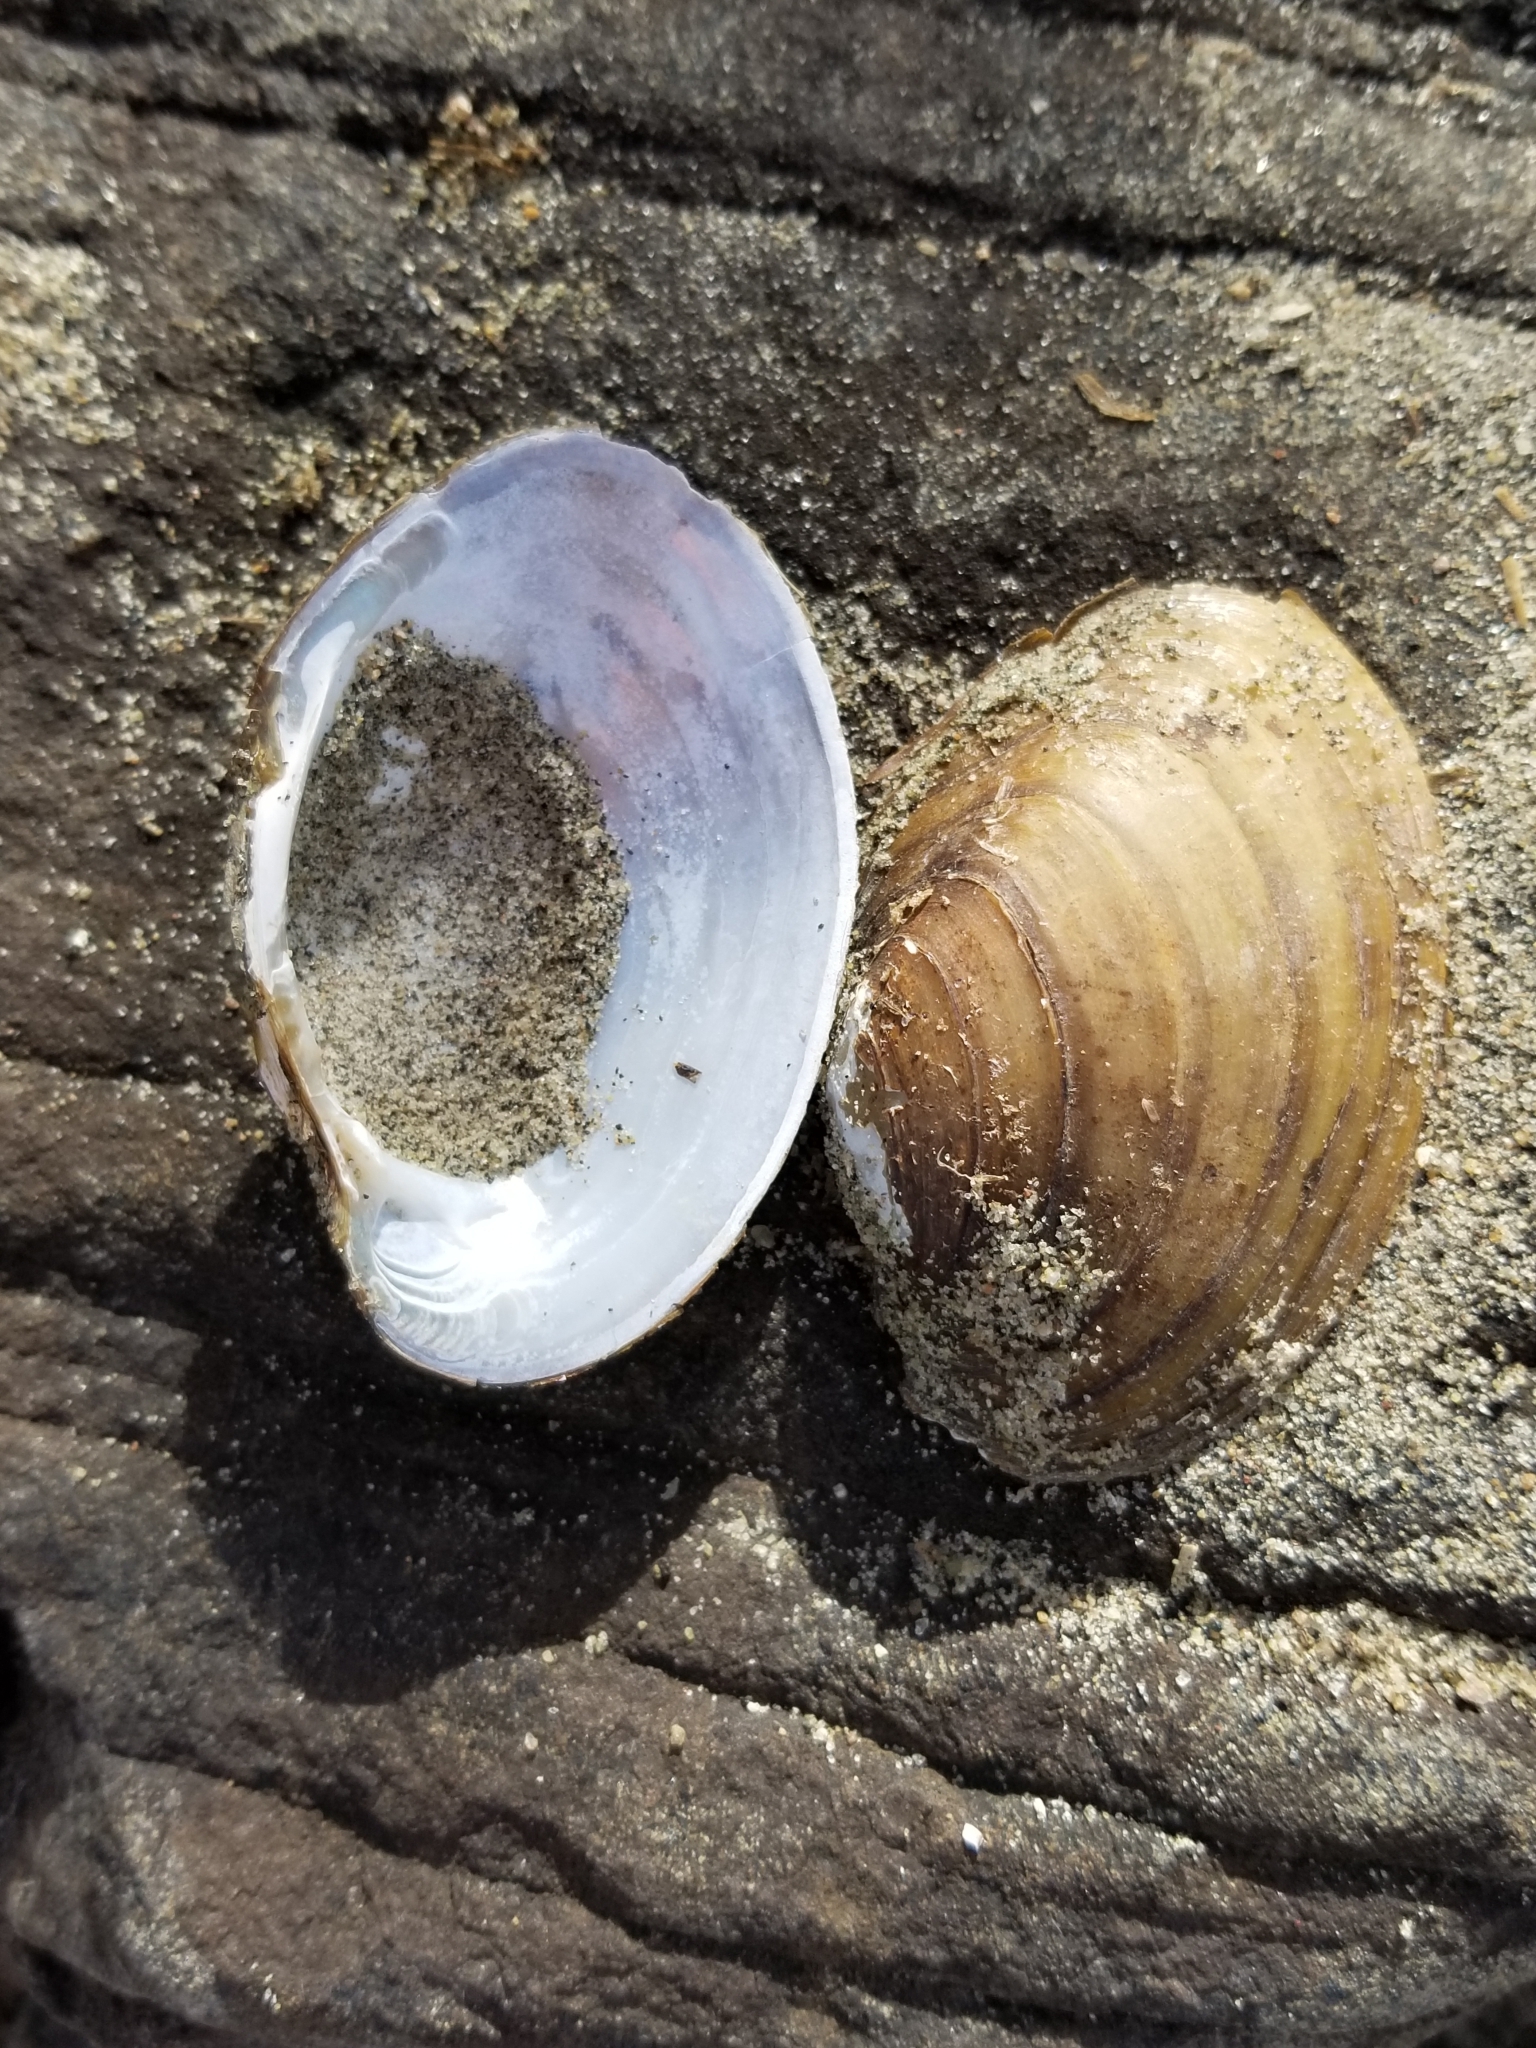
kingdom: Animalia
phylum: Mollusca
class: Bivalvia
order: Unionida
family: Unionidae
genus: Lampsilis
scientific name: Lampsilis cardium
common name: Plain pocketbook
